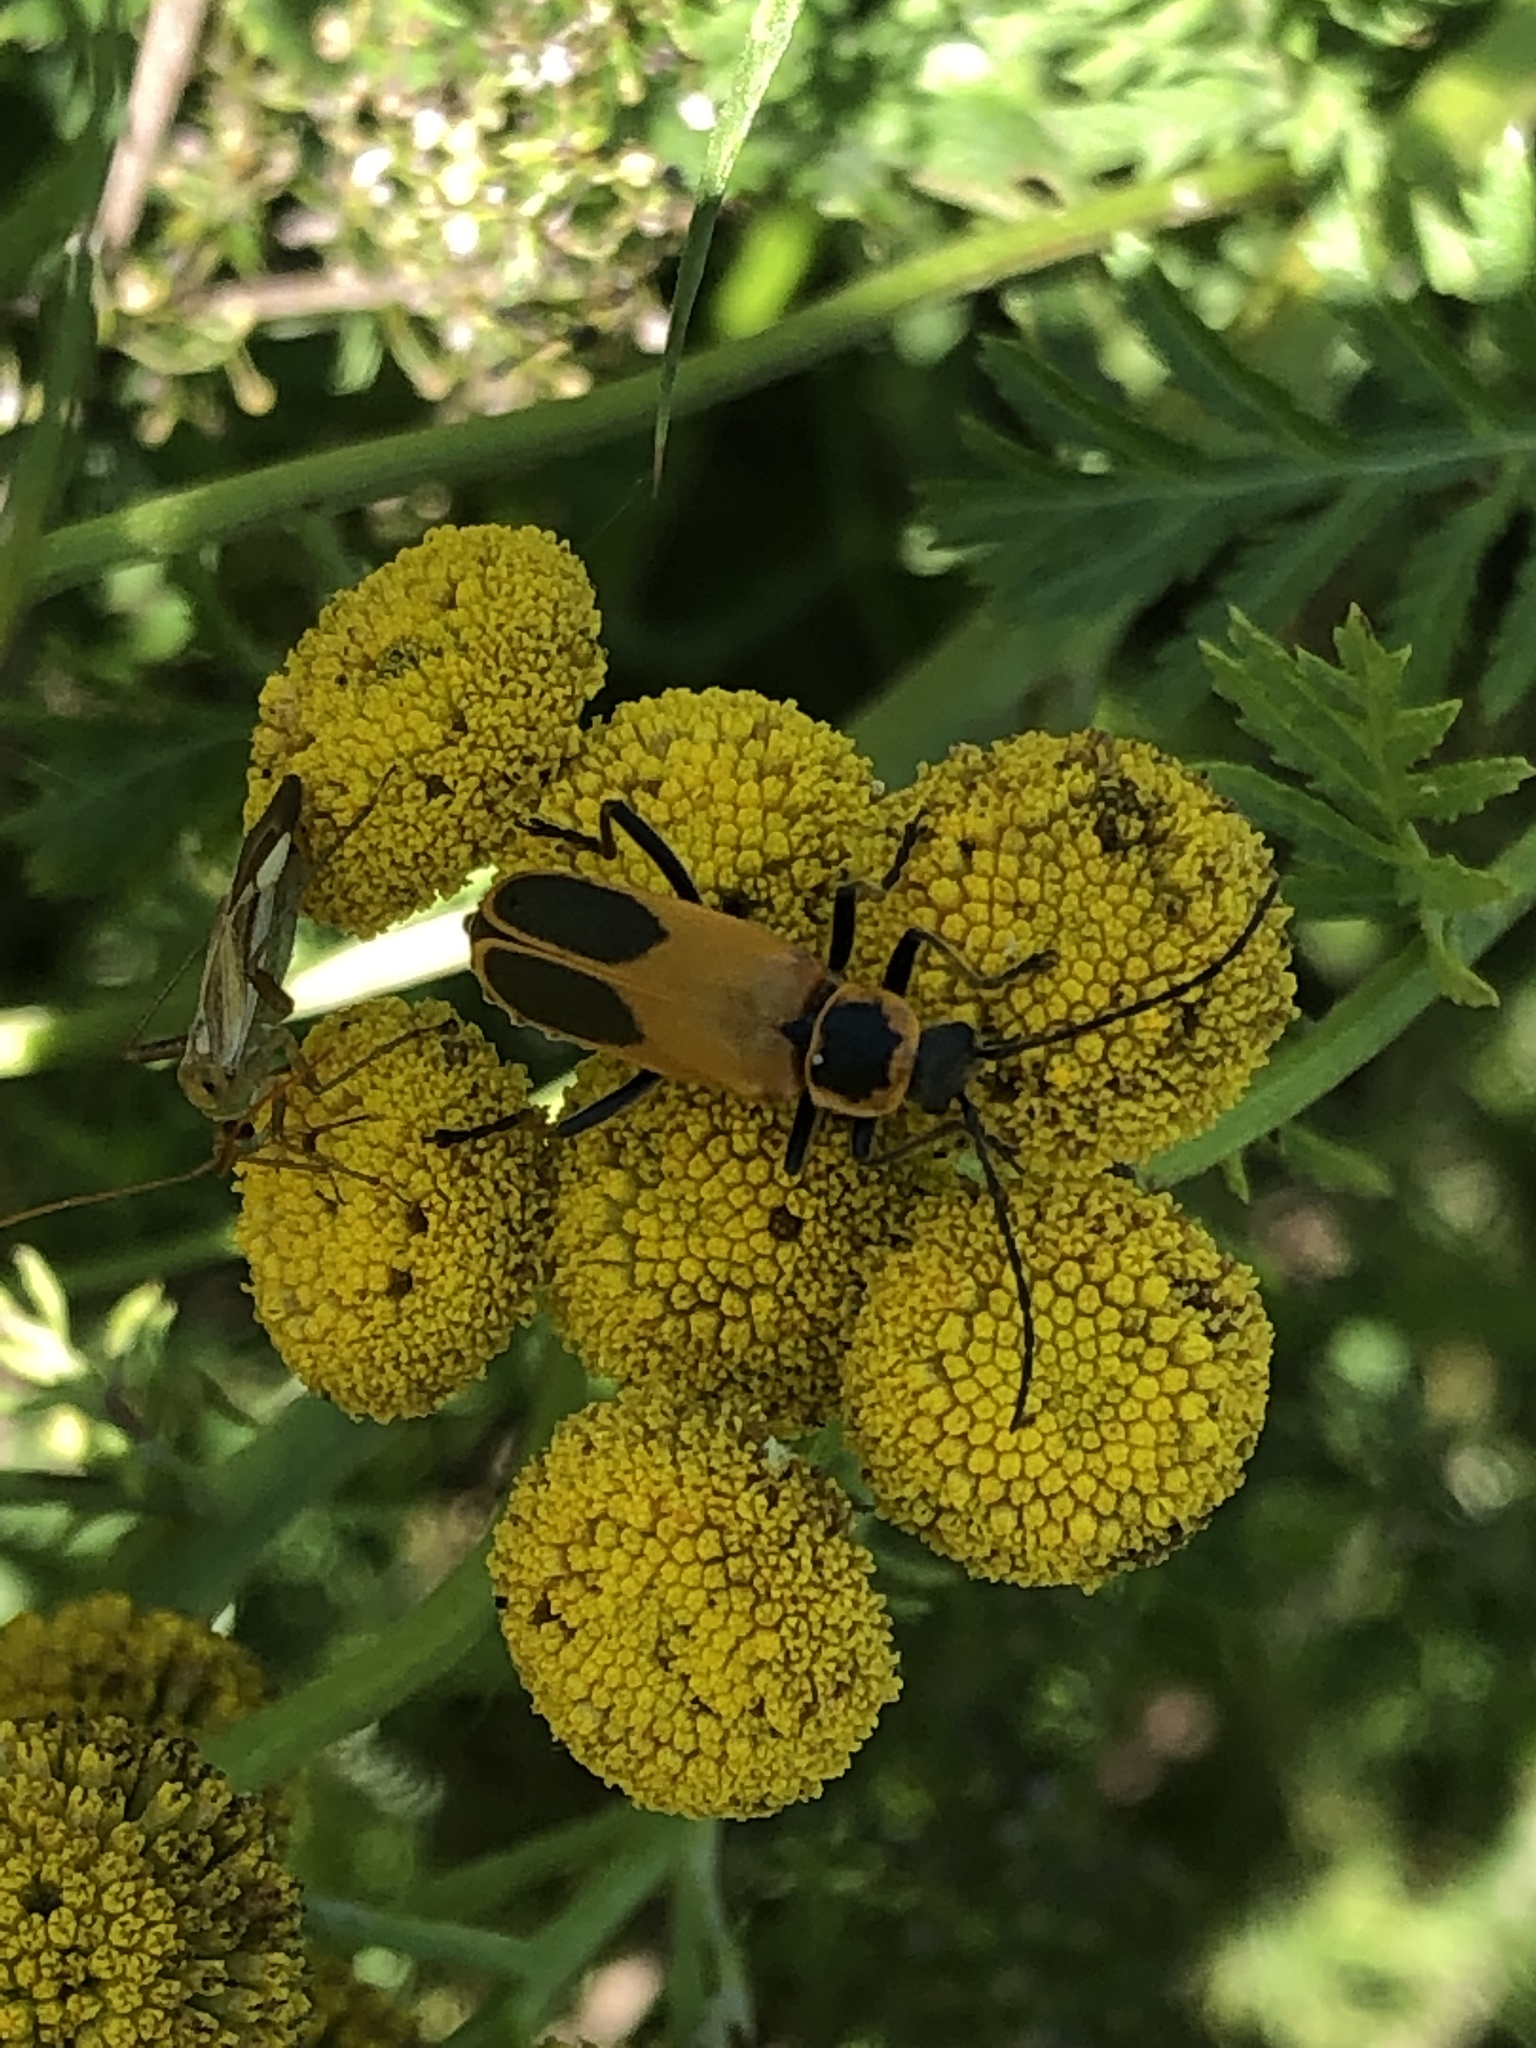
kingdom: Animalia
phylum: Arthropoda
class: Insecta
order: Coleoptera
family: Cantharidae
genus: Chauliognathus
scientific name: Chauliognathus pensylvanicus
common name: Goldenrod soldier beetle
